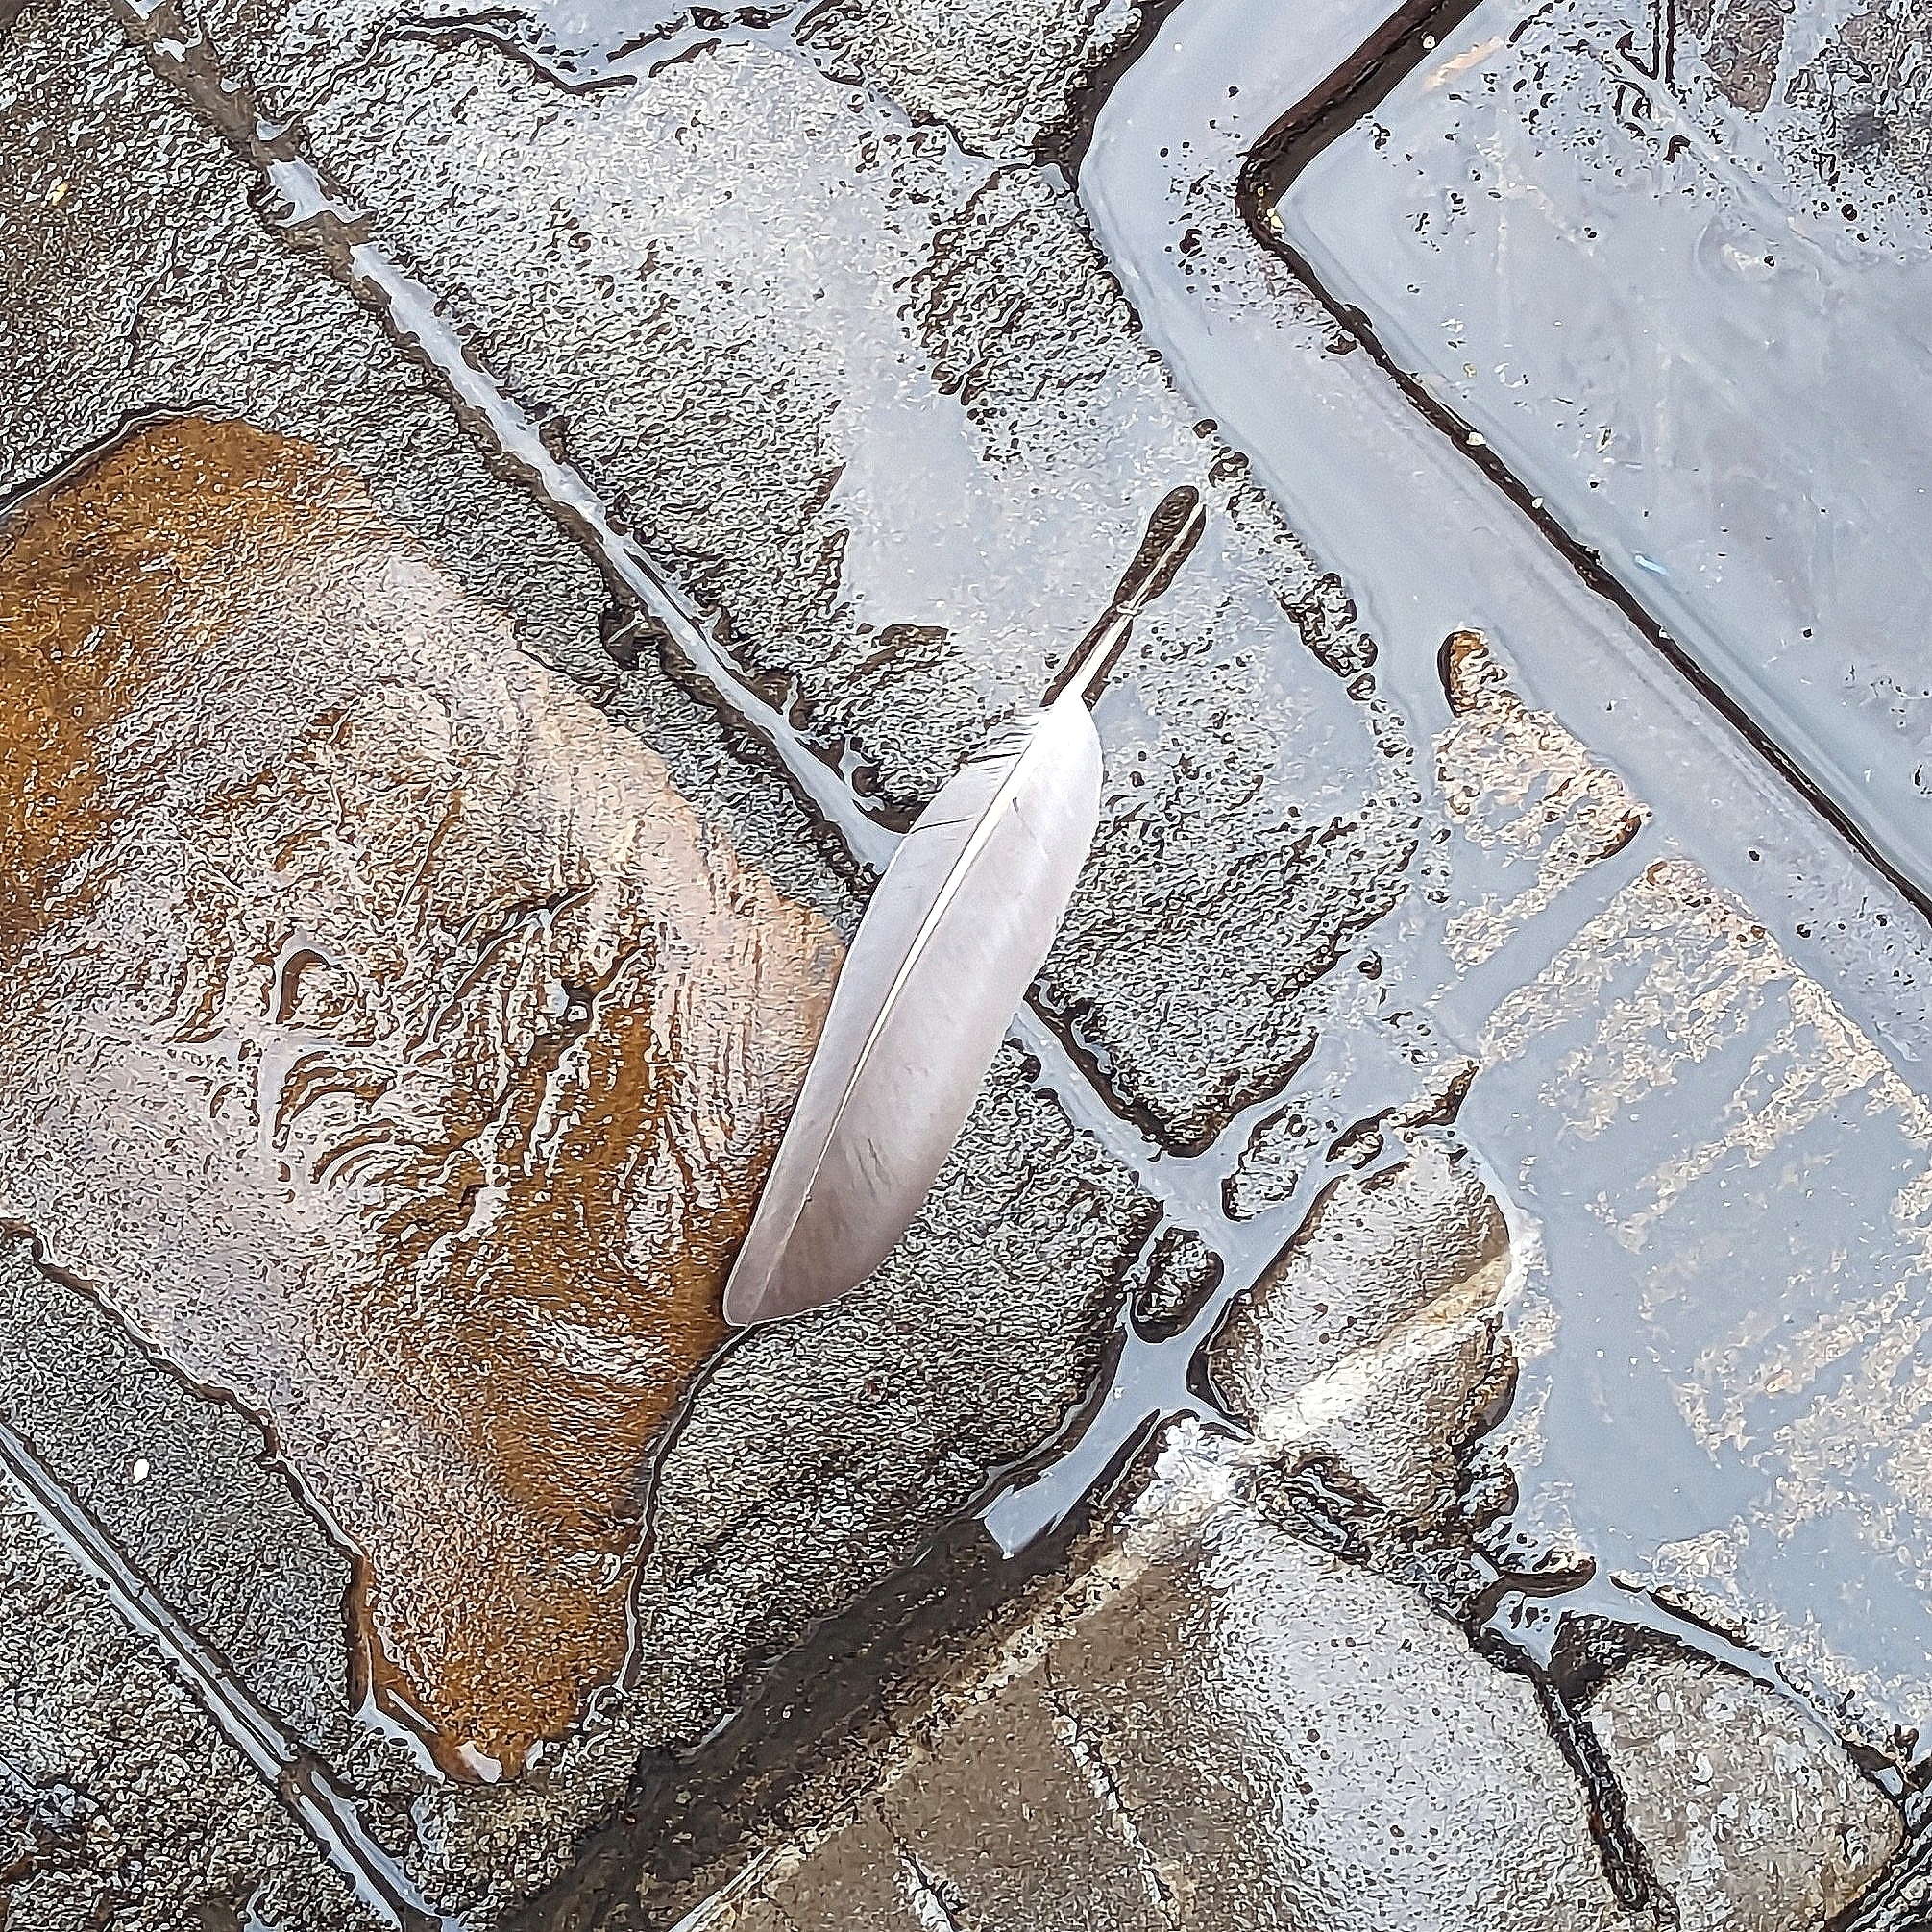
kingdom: Animalia
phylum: Chordata
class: Aves
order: Columbiformes
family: Columbidae
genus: Columba
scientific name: Columba livia
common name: Rock pigeon
